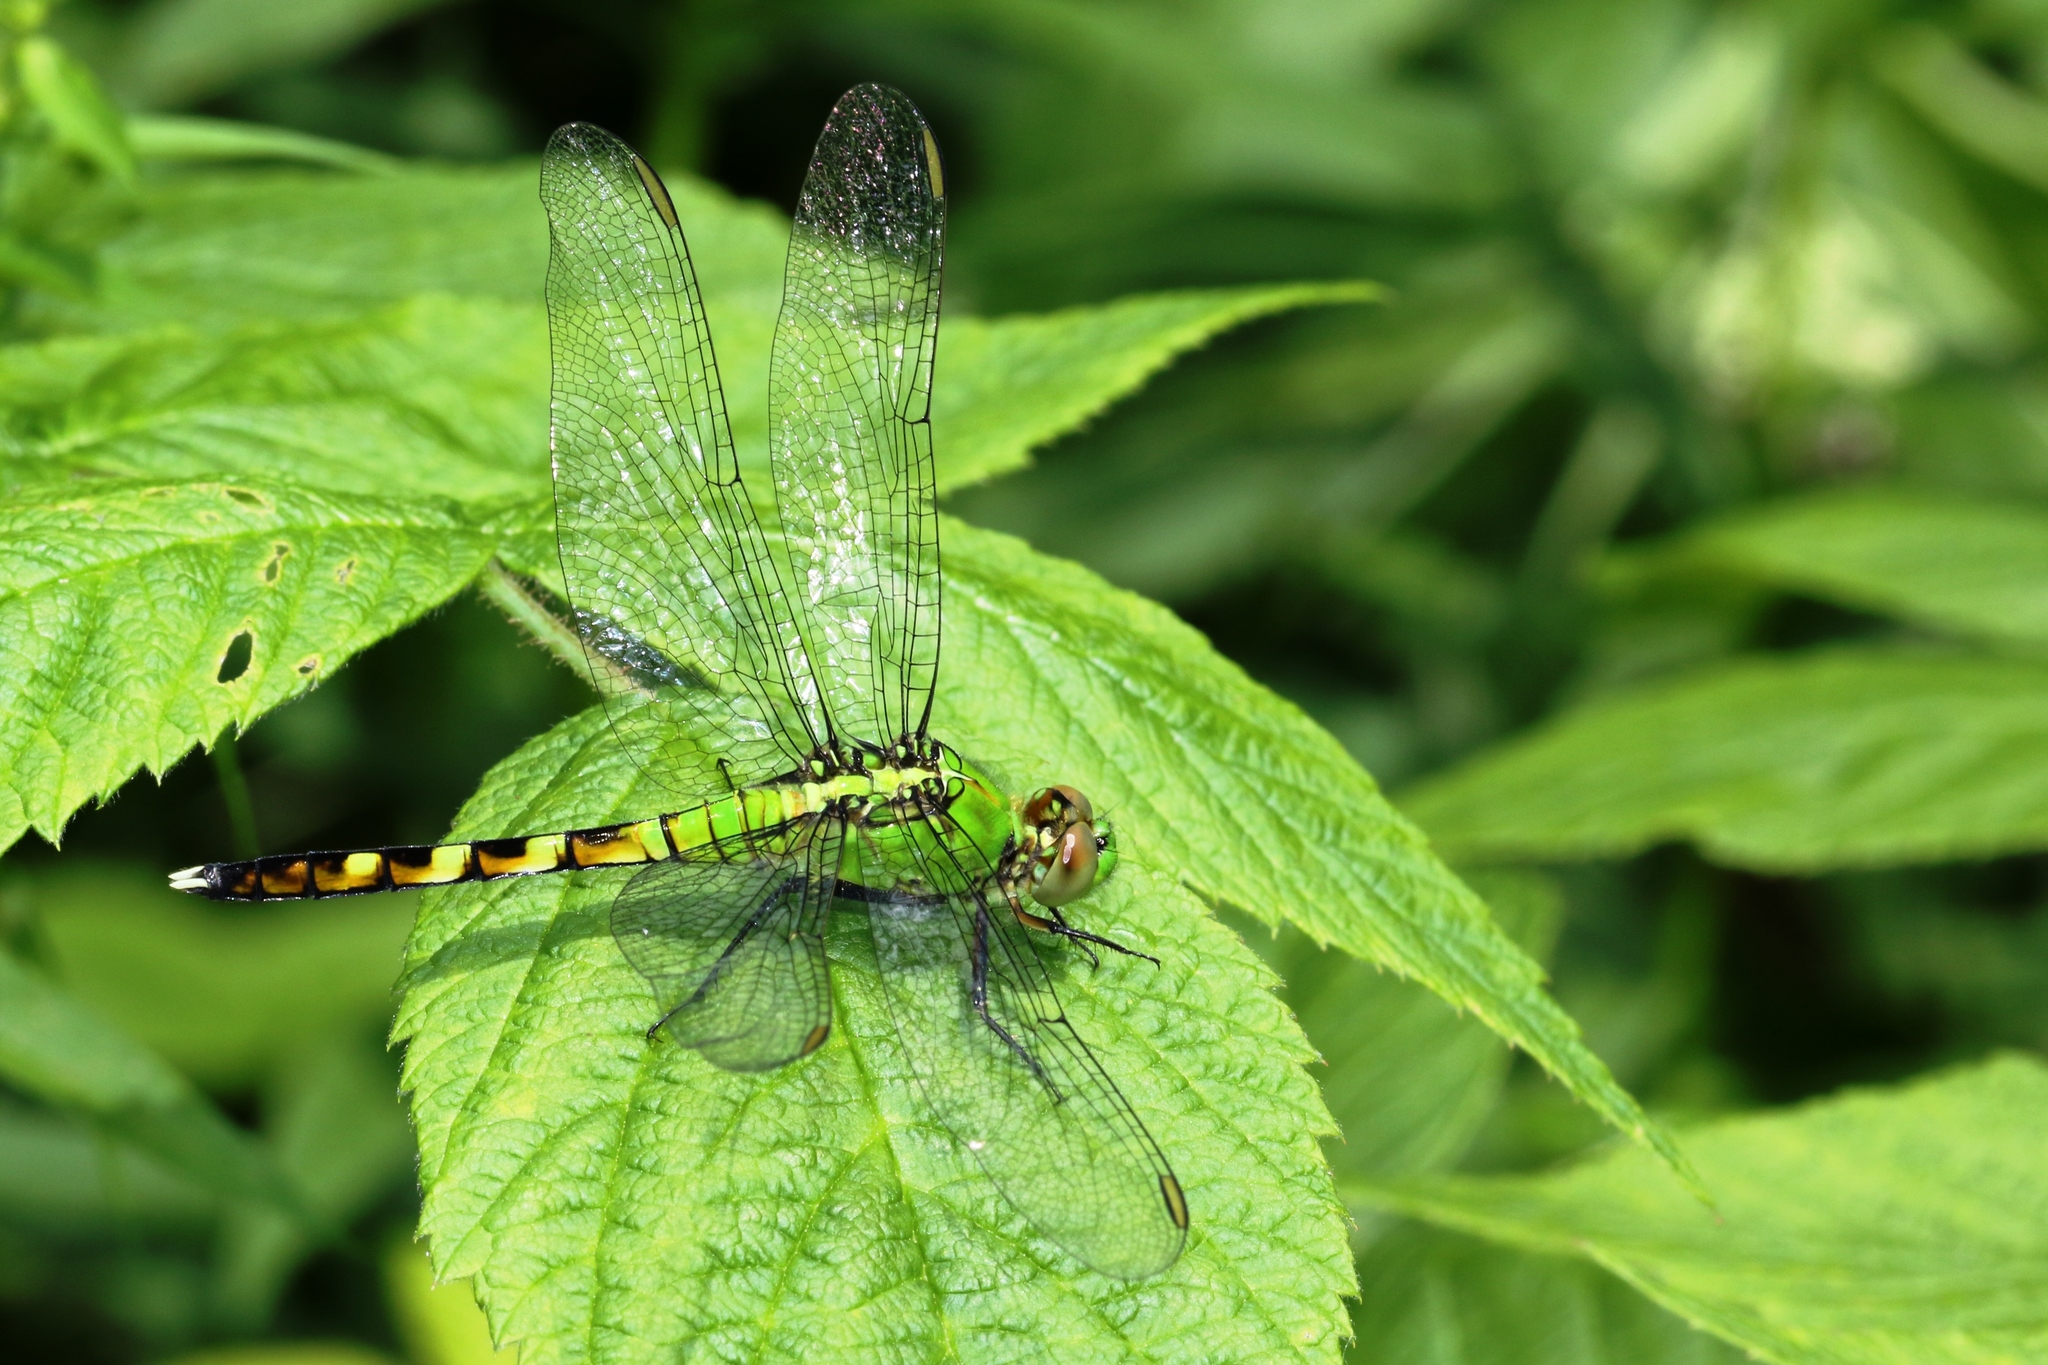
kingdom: Animalia
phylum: Arthropoda
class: Insecta
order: Odonata
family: Libellulidae
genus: Erythemis
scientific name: Erythemis simplicicollis
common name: Eastern pondhawk
